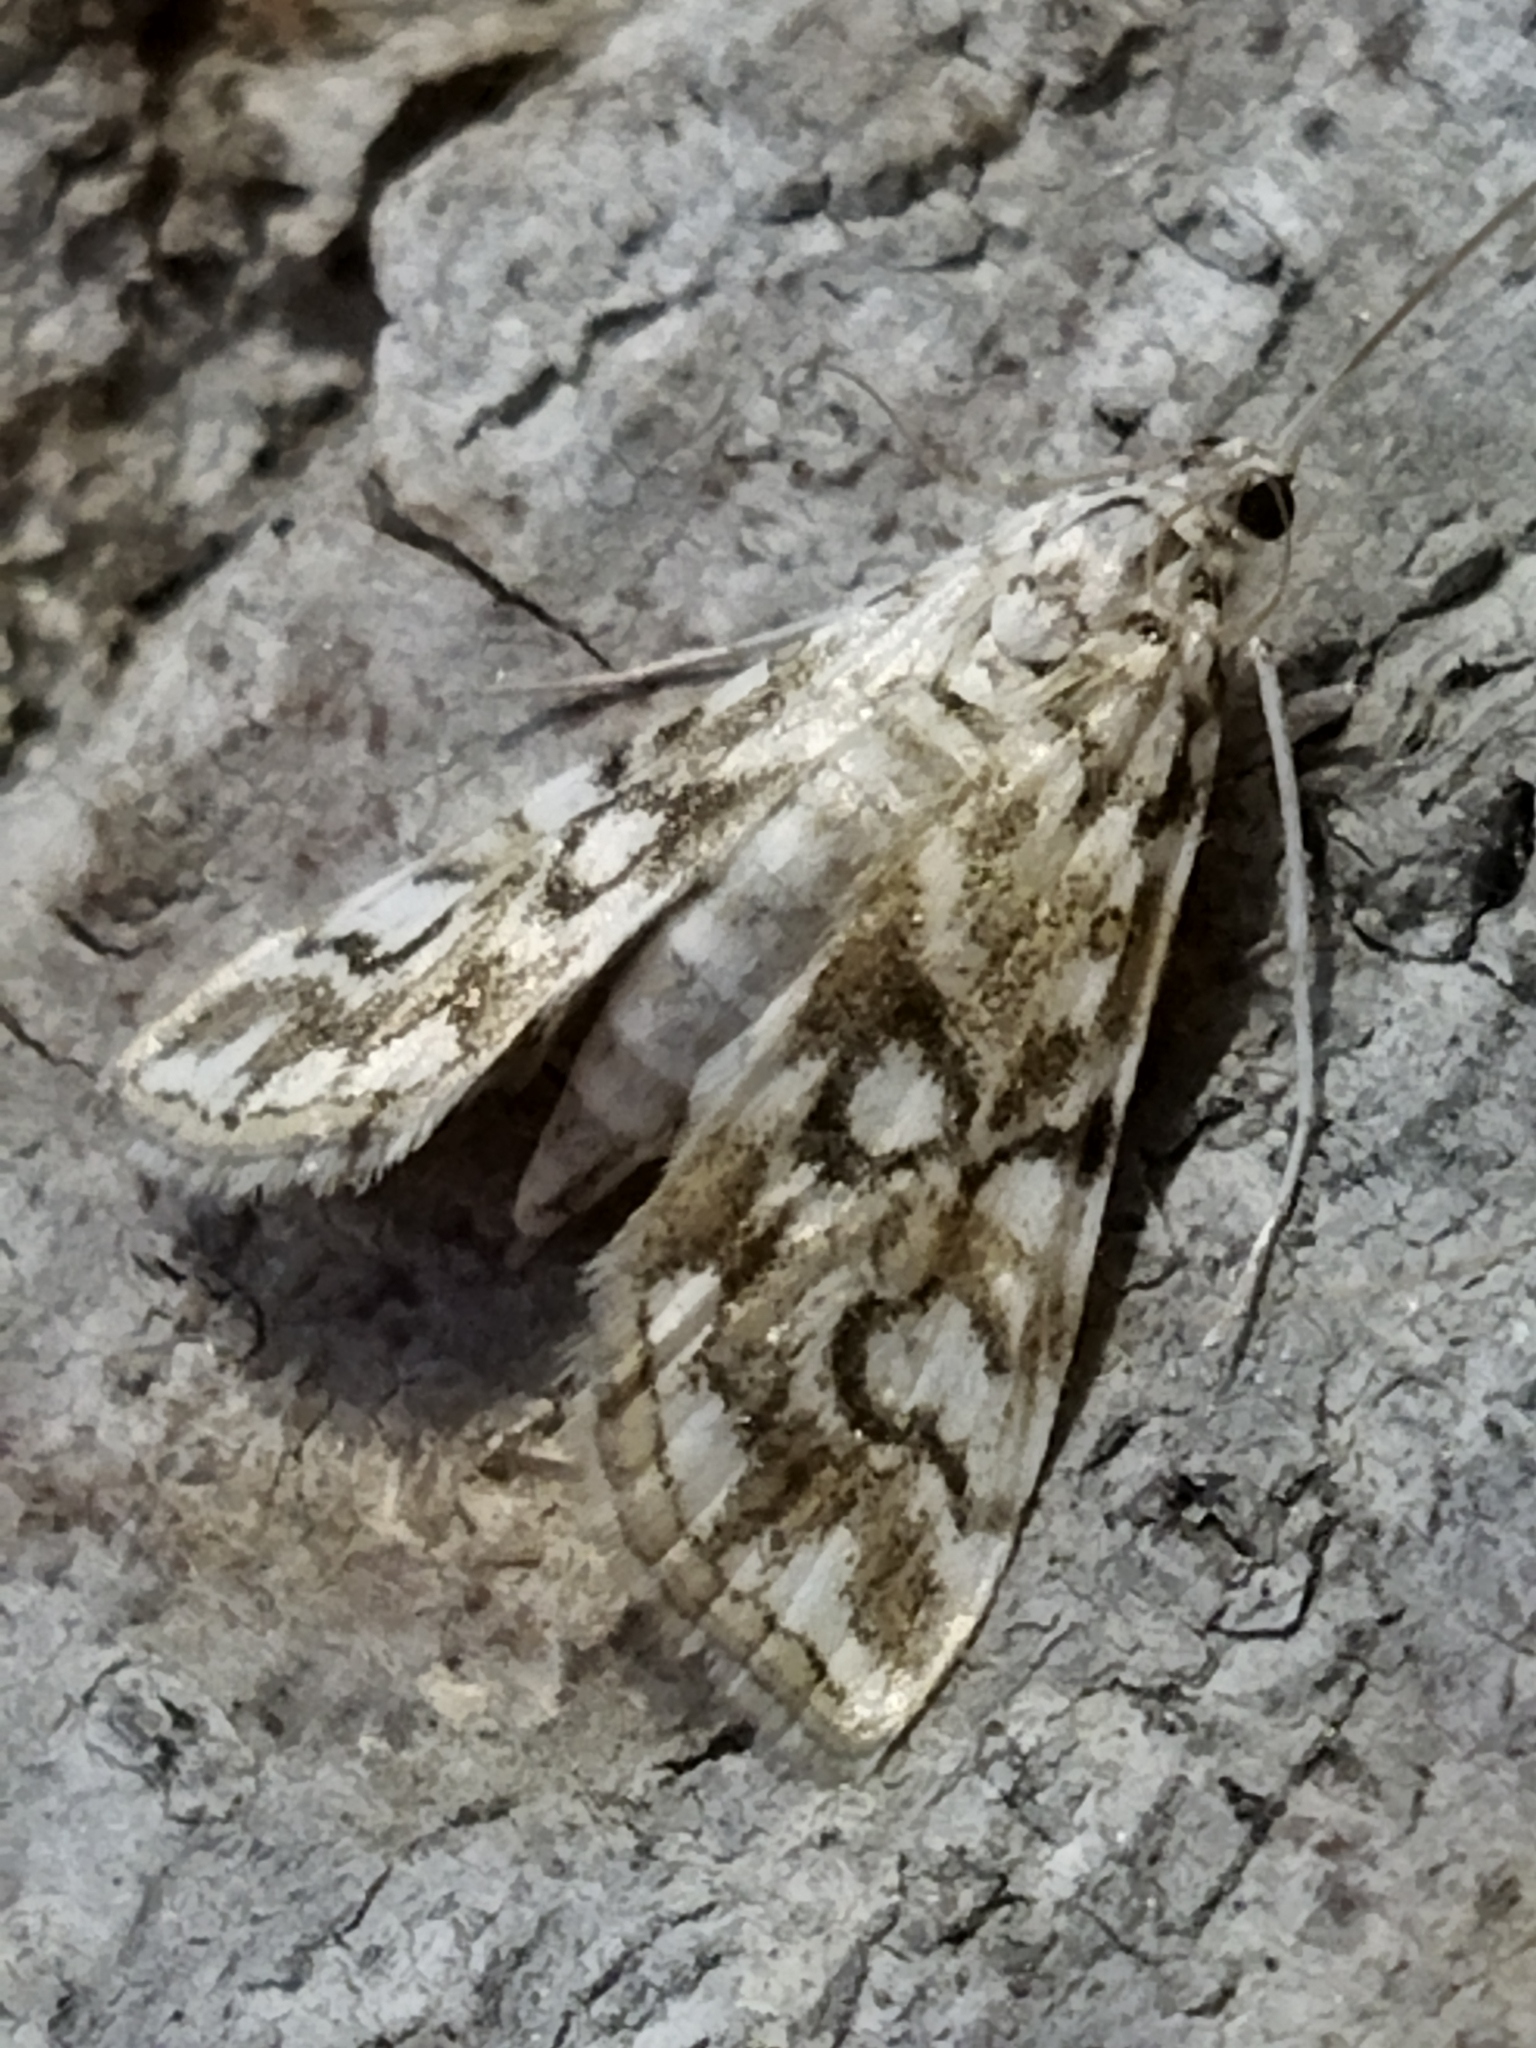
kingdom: Animalia
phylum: Arthropoda
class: Insecta
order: Lepidoptera
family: Crambidae
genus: Elophila
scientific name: Elophila nymphaeata
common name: Brown china-mark
